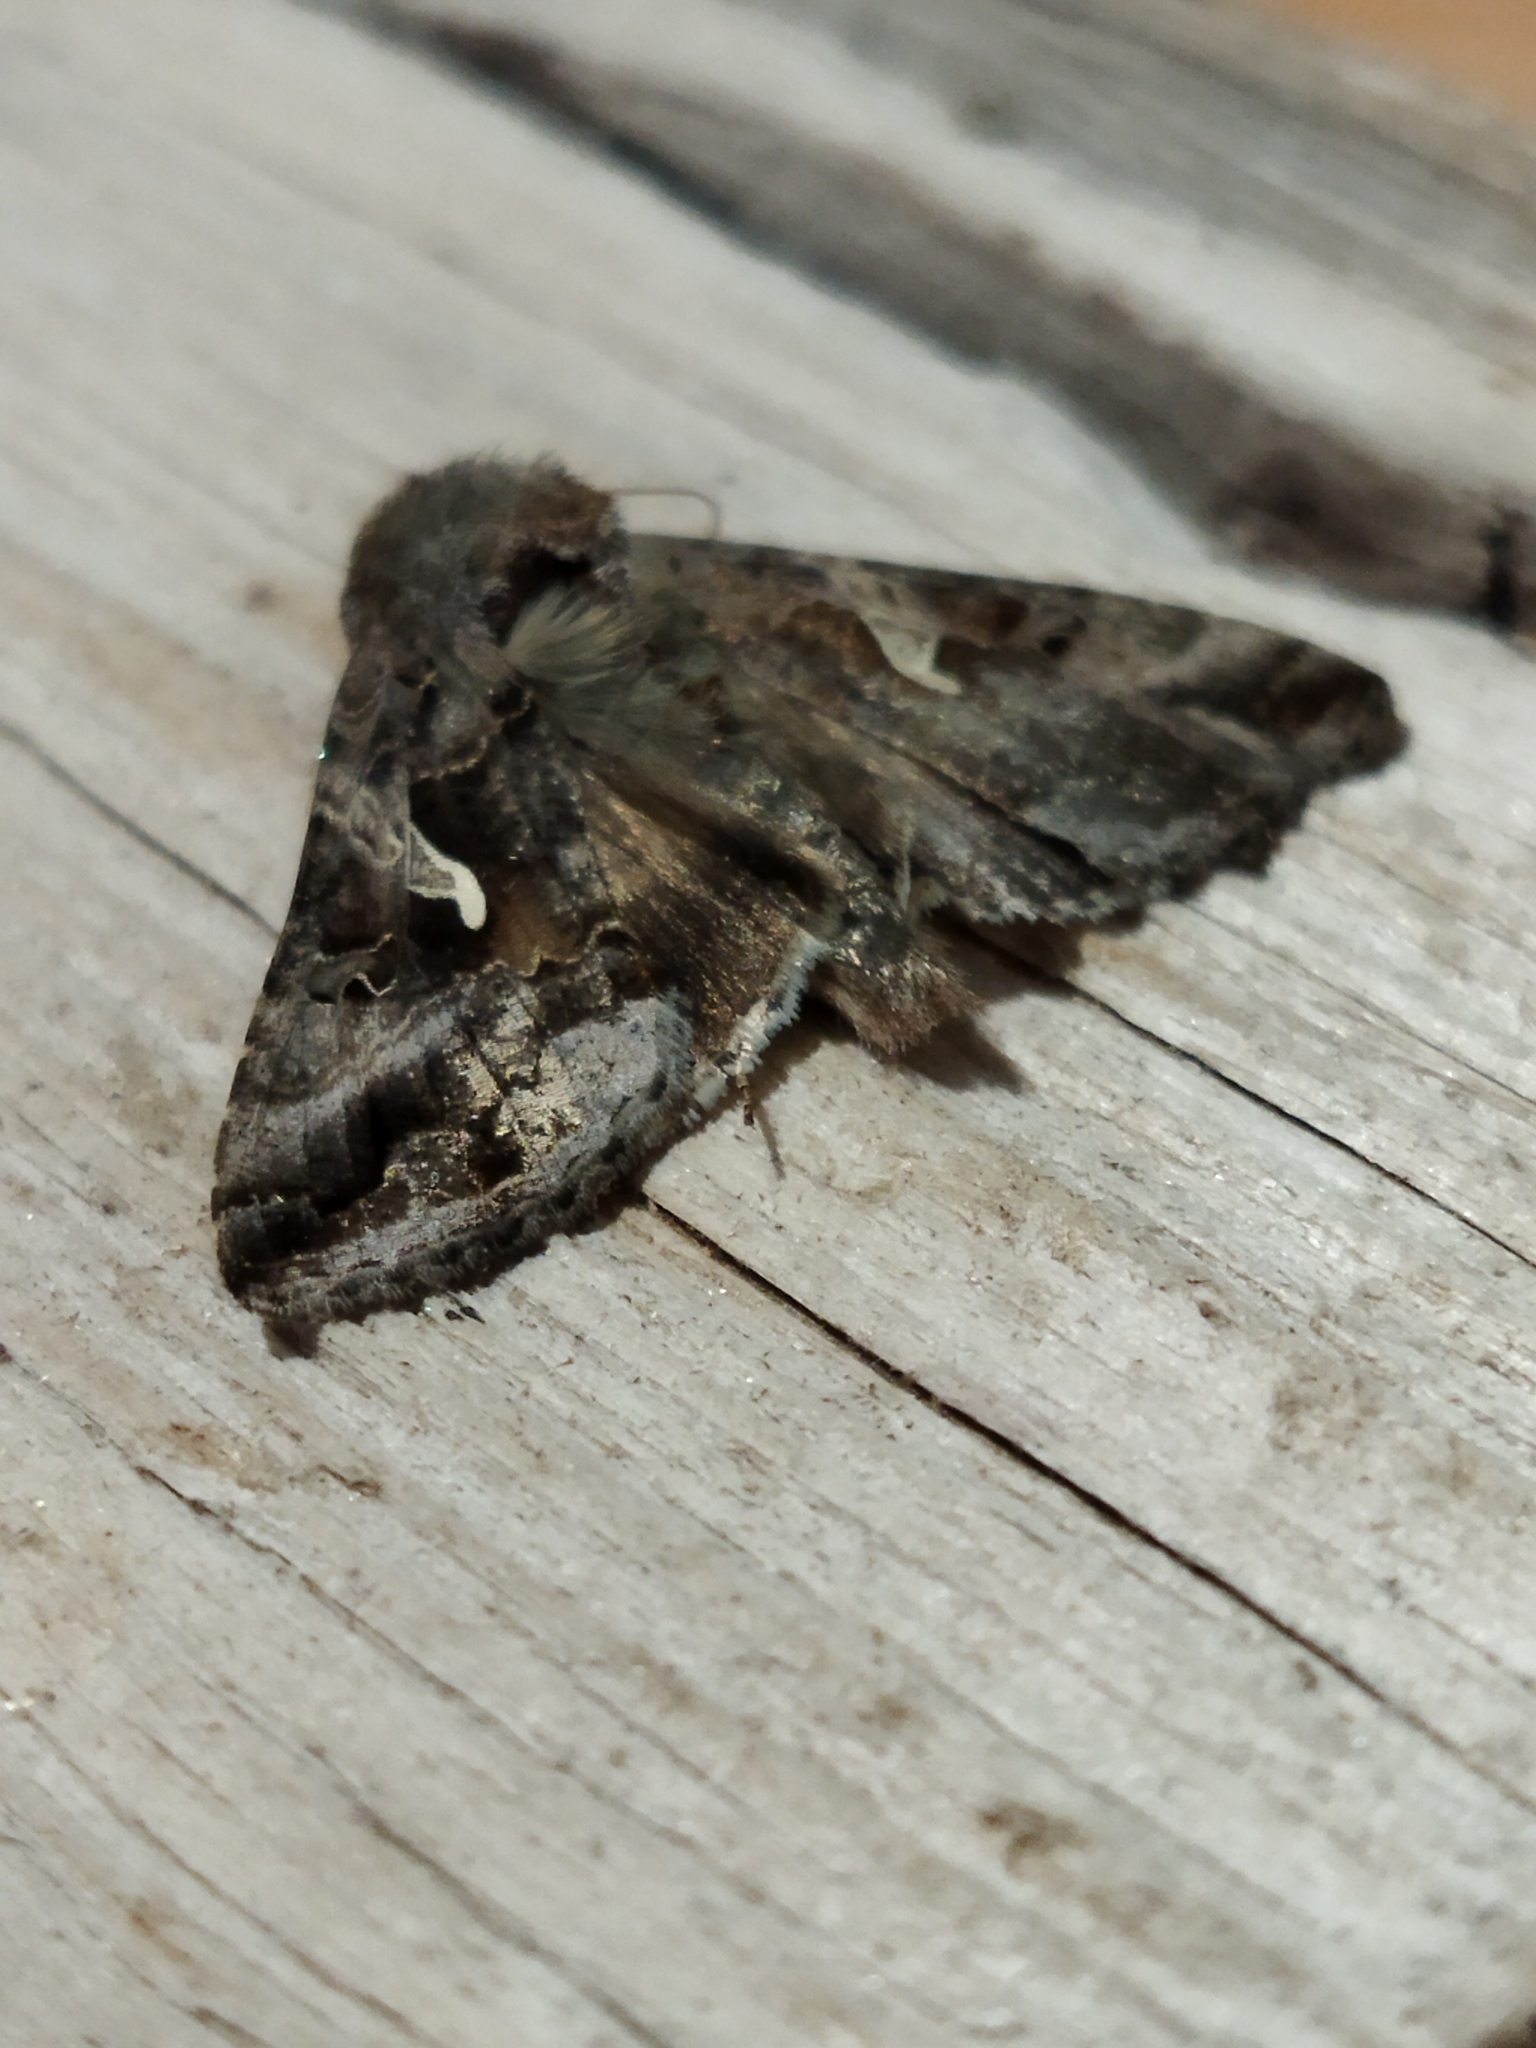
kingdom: Animalia
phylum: Arthropoda
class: Insecta
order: Lepidoptera
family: Noctuidae
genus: Autographa
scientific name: Autographa gamma
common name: Silver y
